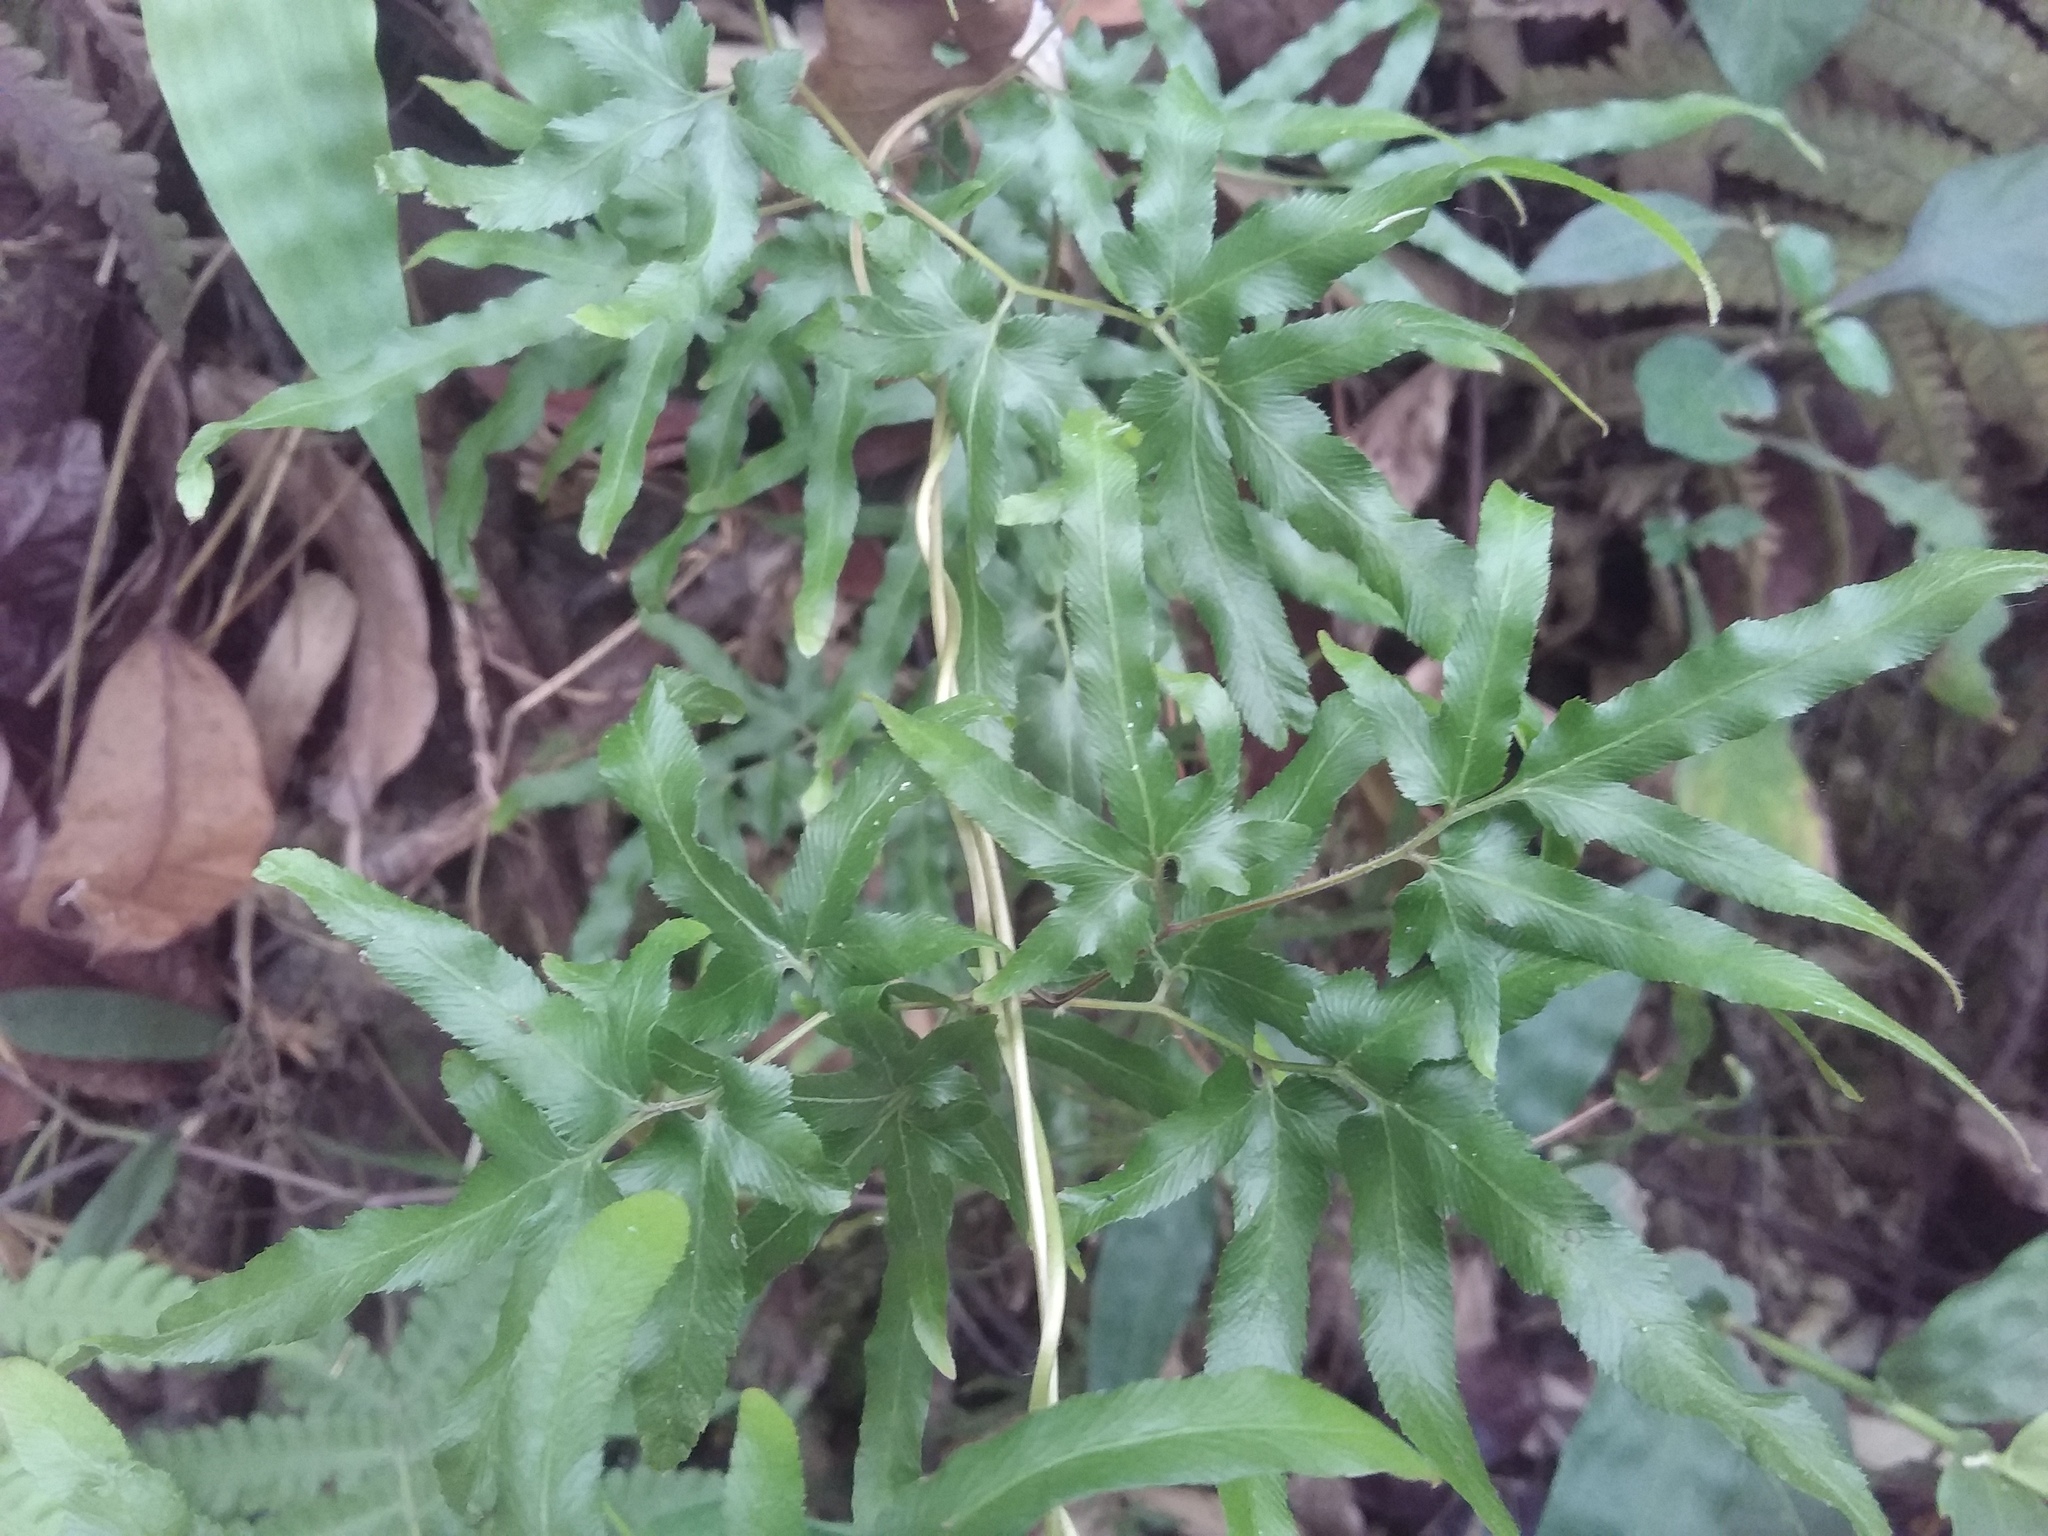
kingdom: Plantae
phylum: Tracheophyta
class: Polypodiopsida
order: Schizaeales
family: Lygodiaceae
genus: Lygodium
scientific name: Lygodium japonicum
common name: Japanese climbing fern
